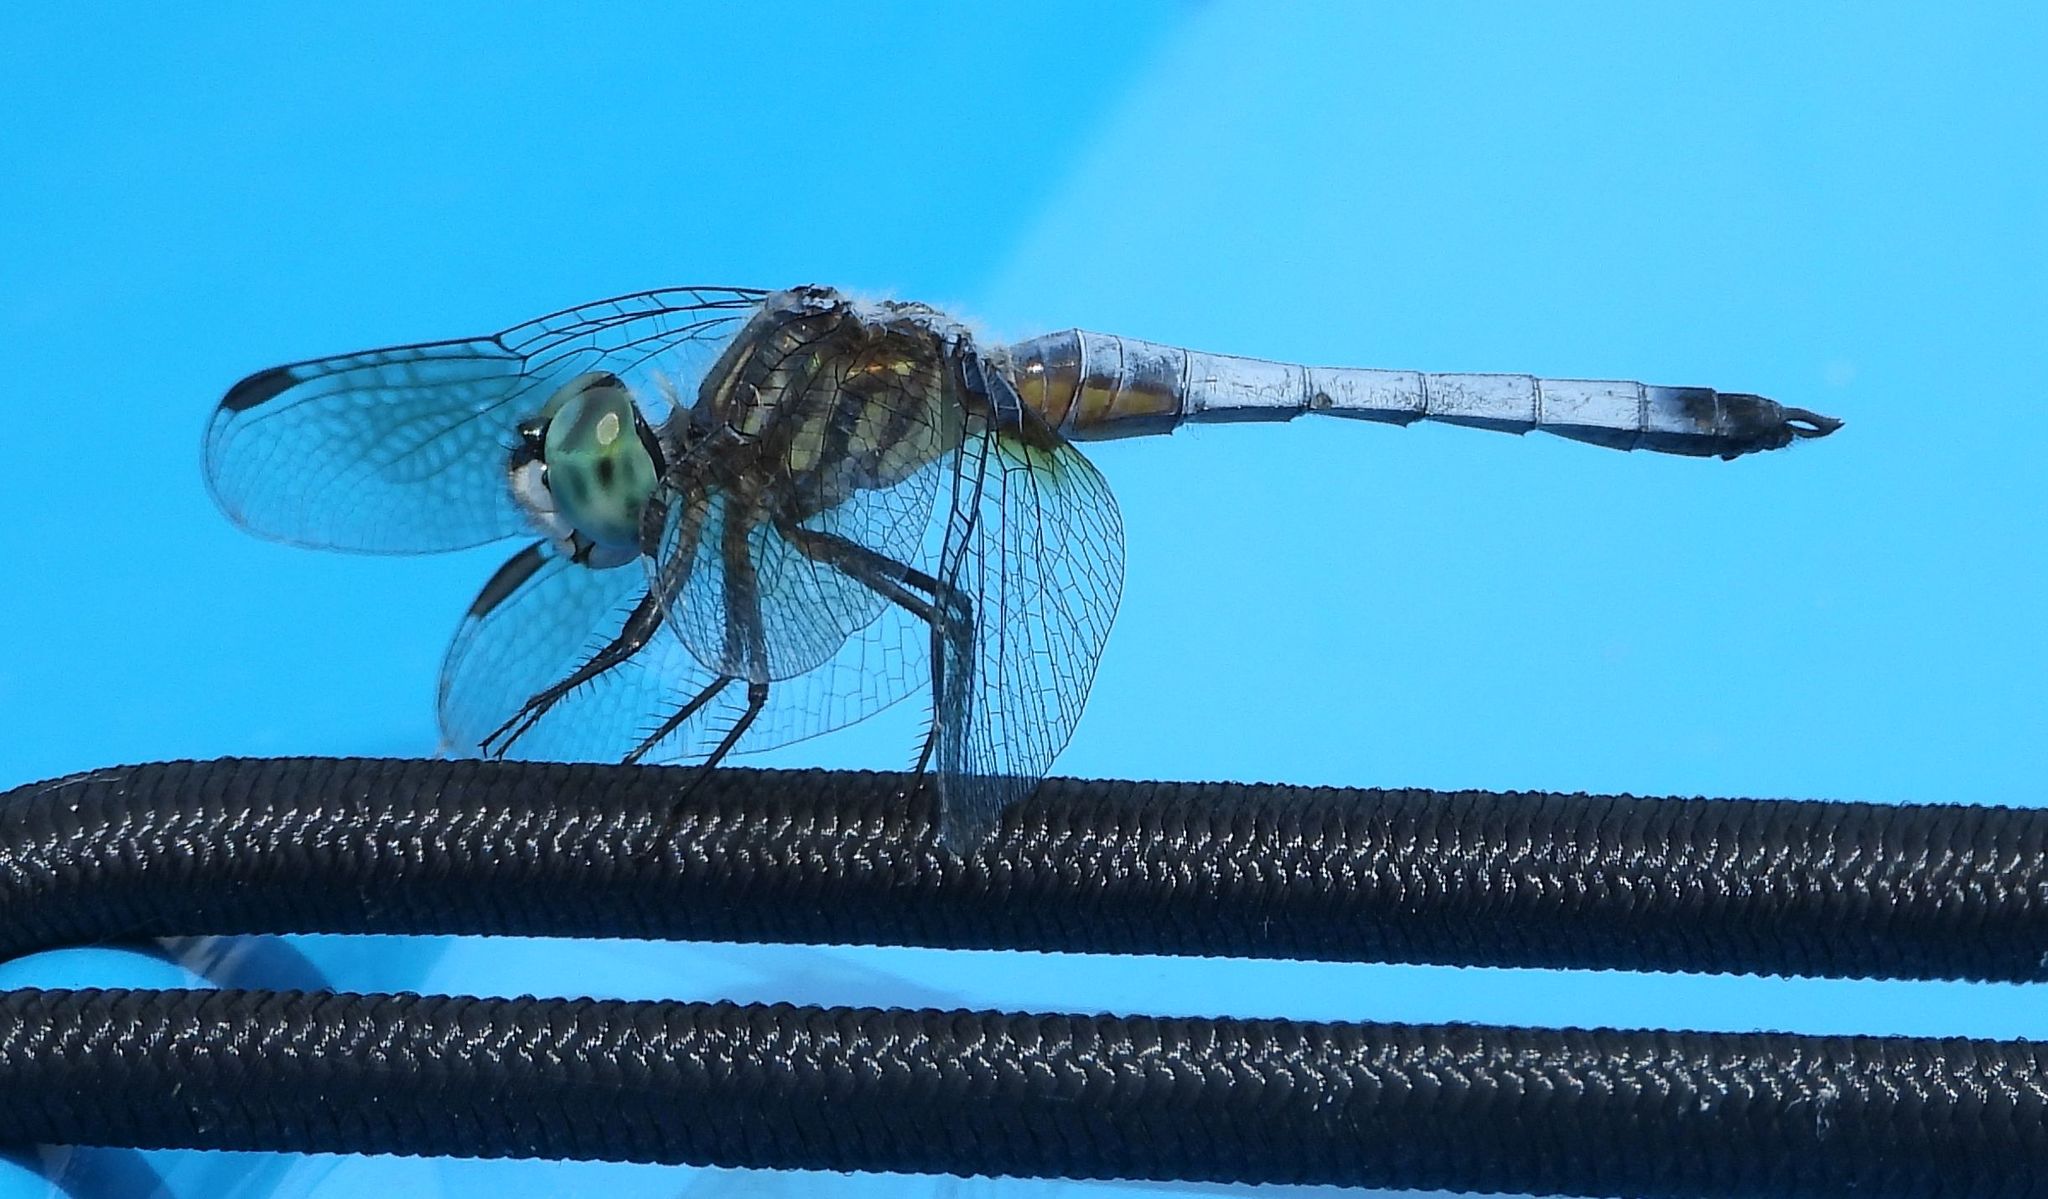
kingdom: Animalia
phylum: Arthropoda
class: Insecta
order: Odonata
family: Libellulidae
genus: Pachydiplax
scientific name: Pachydiplax longipennis
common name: Blue dasher
